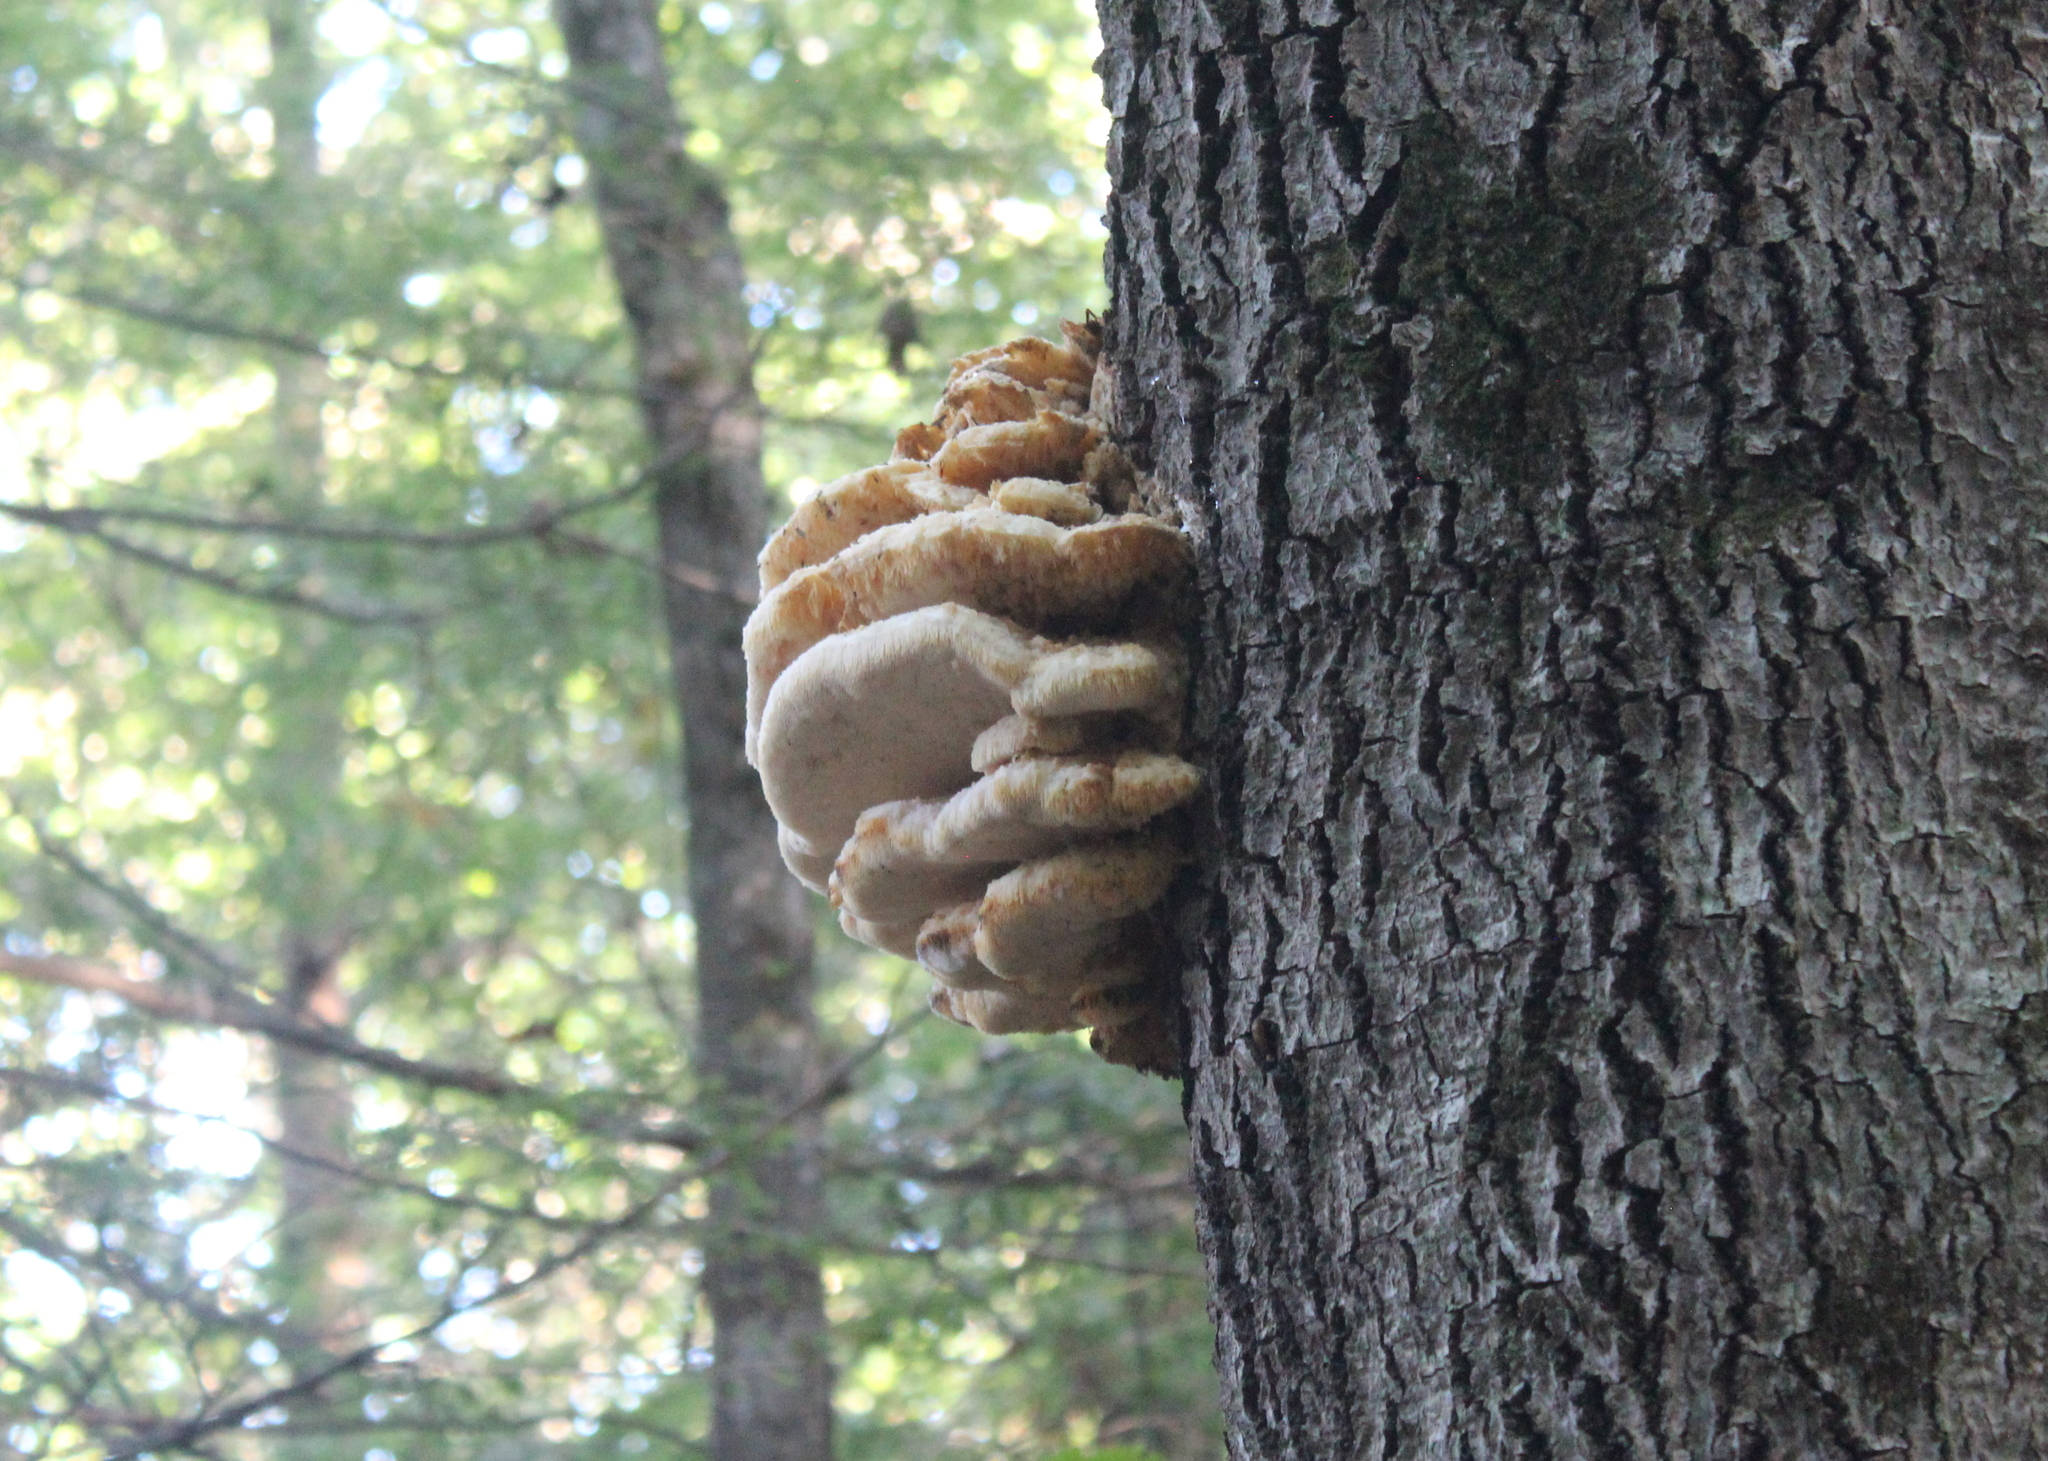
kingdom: Fungi
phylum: Basidiomycota
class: Agaricomycetes
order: Polyporales
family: Meruliaceae
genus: Climacodon
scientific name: Climacodon septentrionalis
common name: Northern tooth
